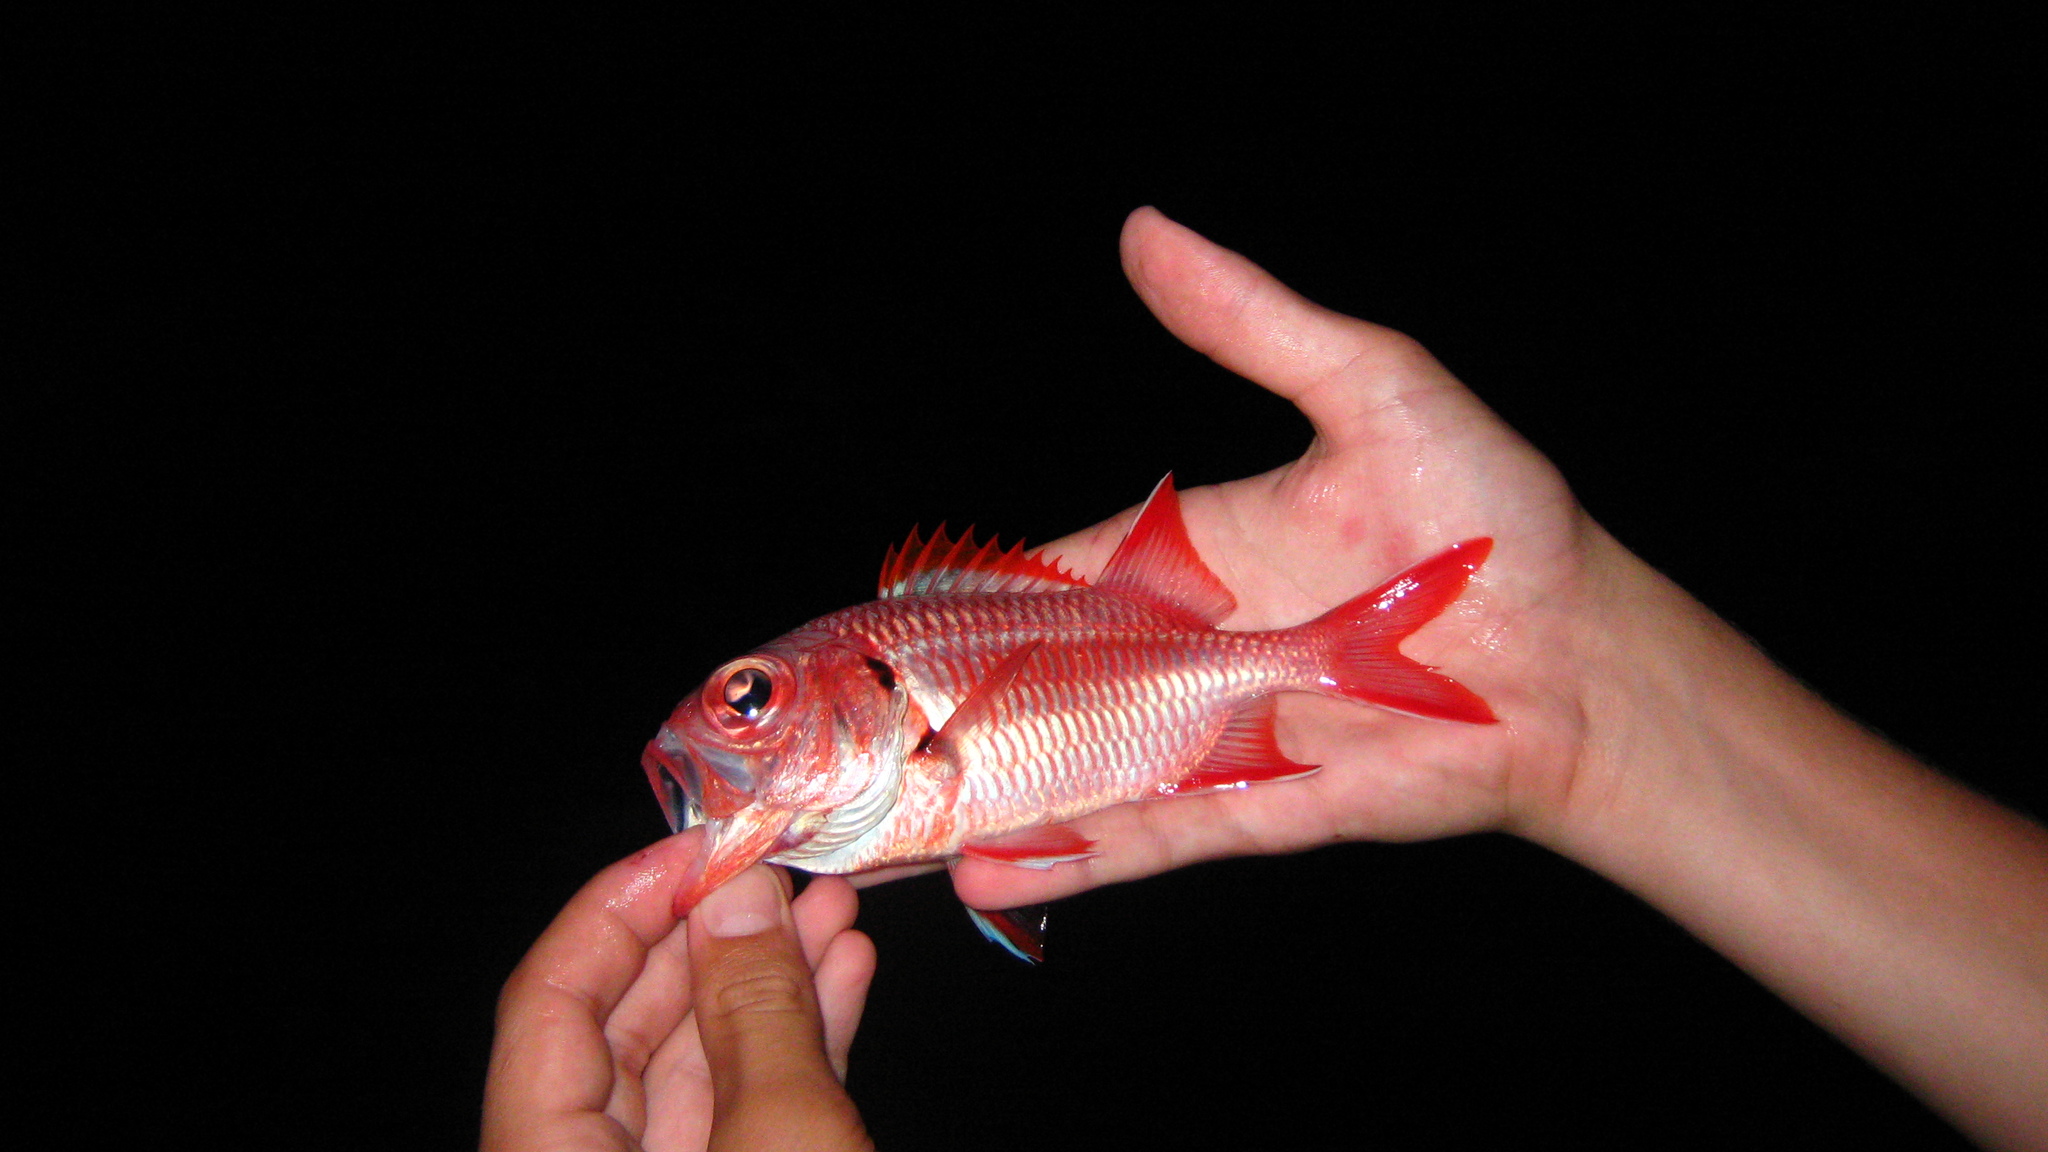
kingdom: Animalia
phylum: Chordata
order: Beryciformes
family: Holocentridae
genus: Myripristis
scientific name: Myripristis berndti
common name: Bigscale soldierfish
